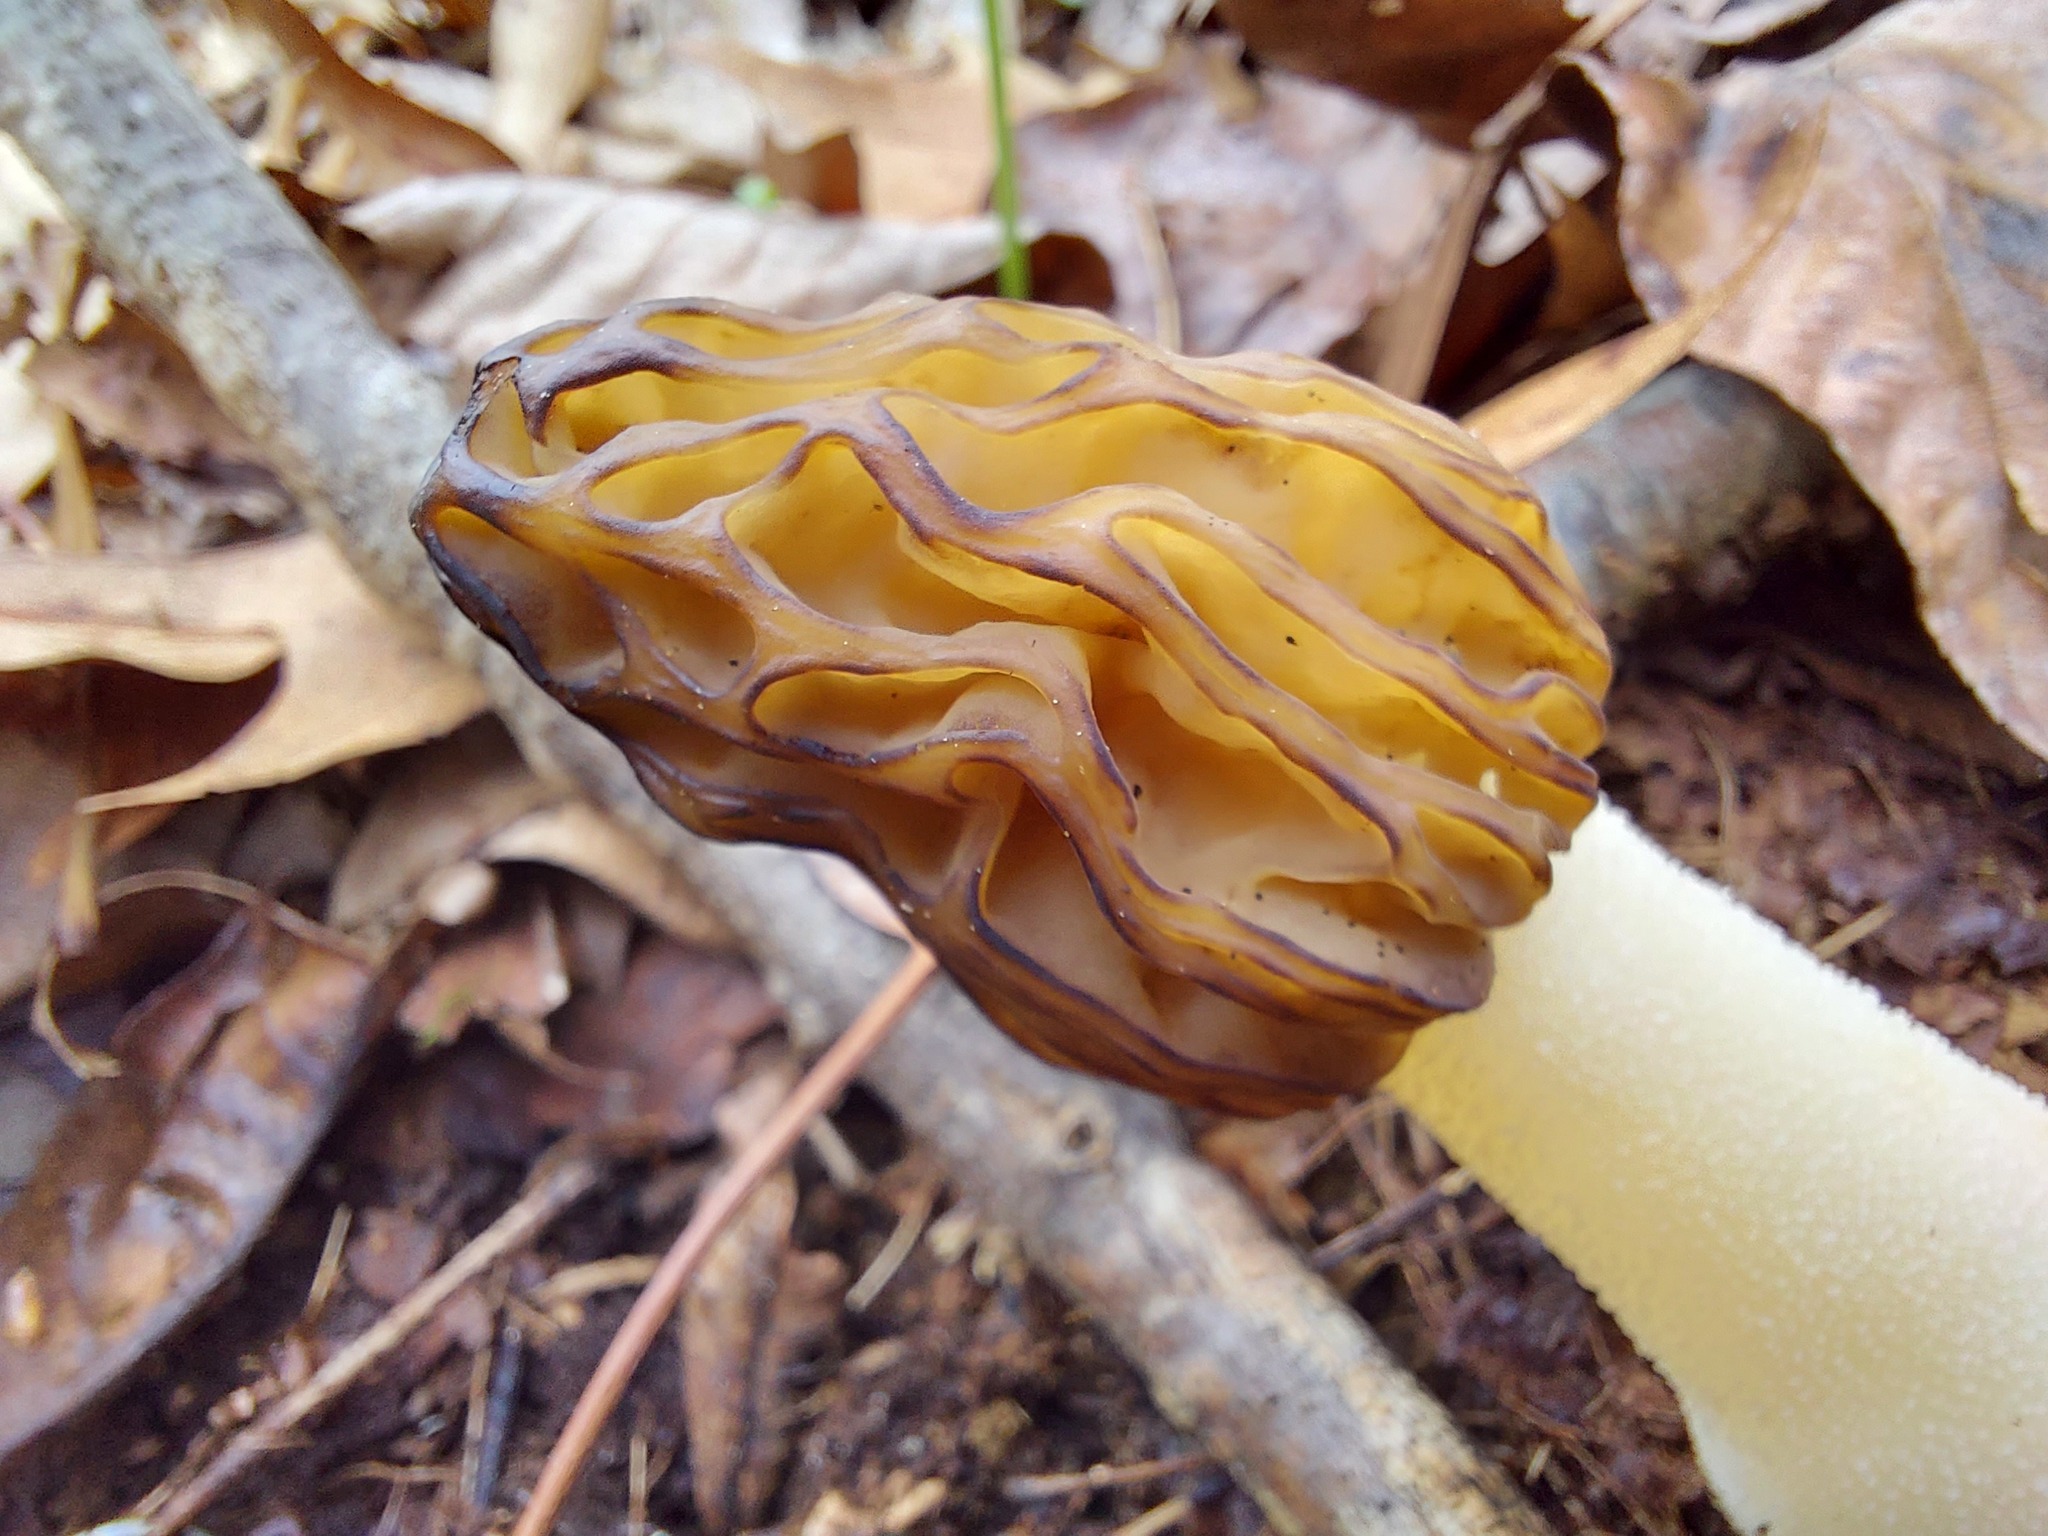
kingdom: Fungi
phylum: Ascomycota
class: Pezizomycetes
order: Pezizales
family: Morchellaceae
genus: Morchella
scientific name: Morchella punctipes
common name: Half-free morel
